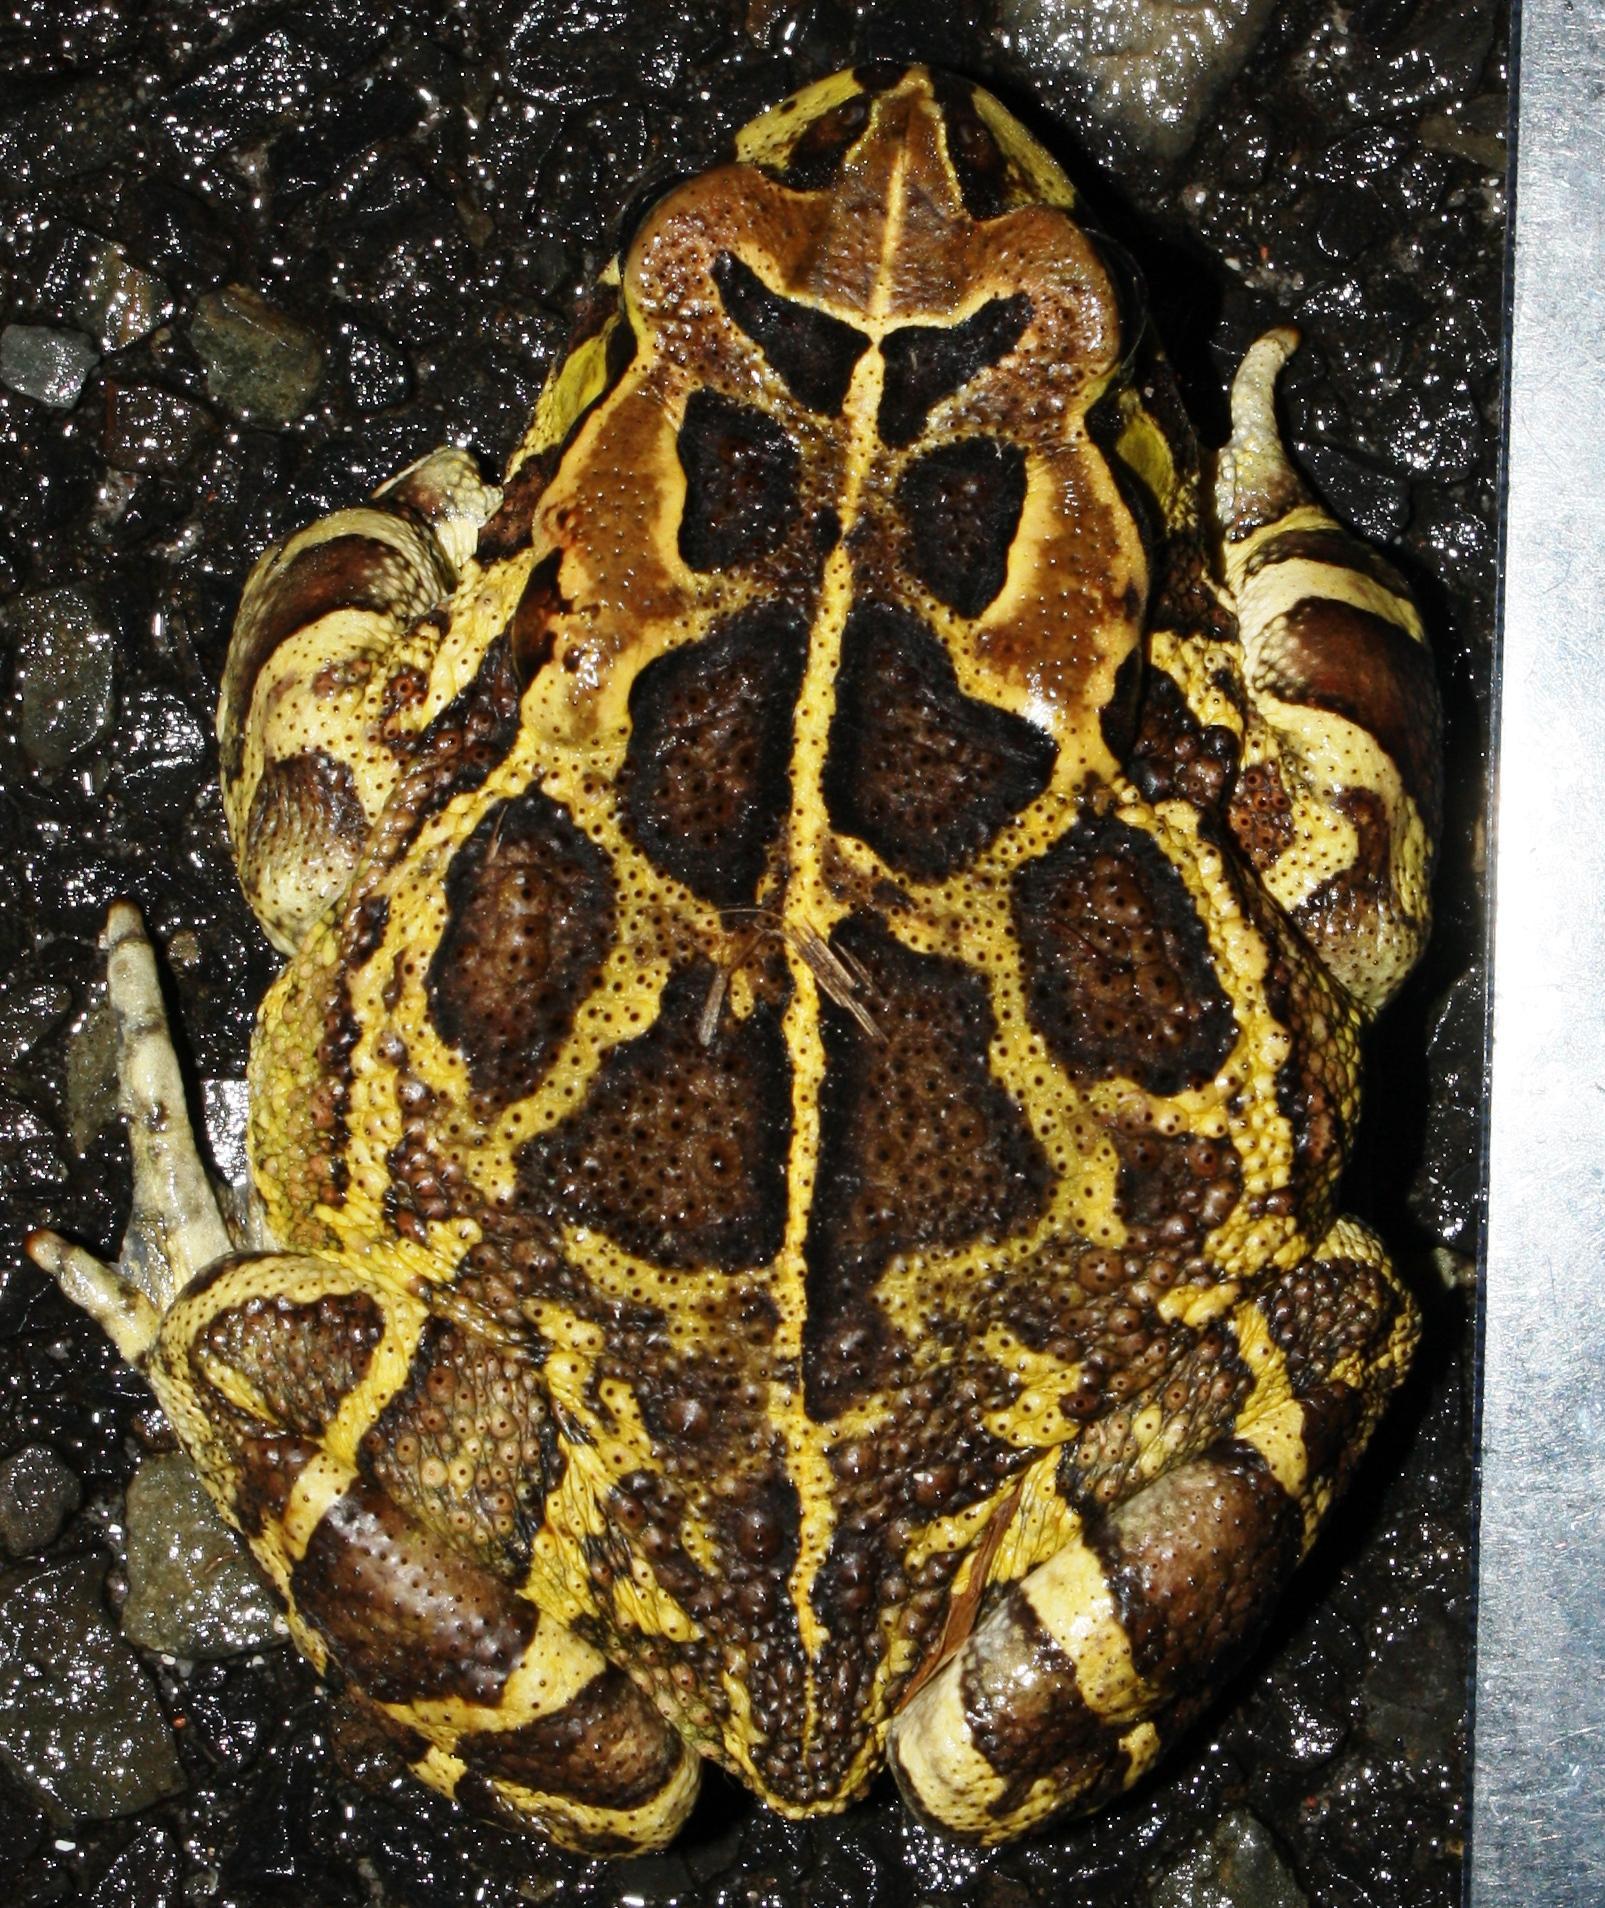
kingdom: Animalia
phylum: Chordata
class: Amphibia
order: Anura
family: Bufonidae
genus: Sclerophrys
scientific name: Sclerophrys pantherina
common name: Panther toad
